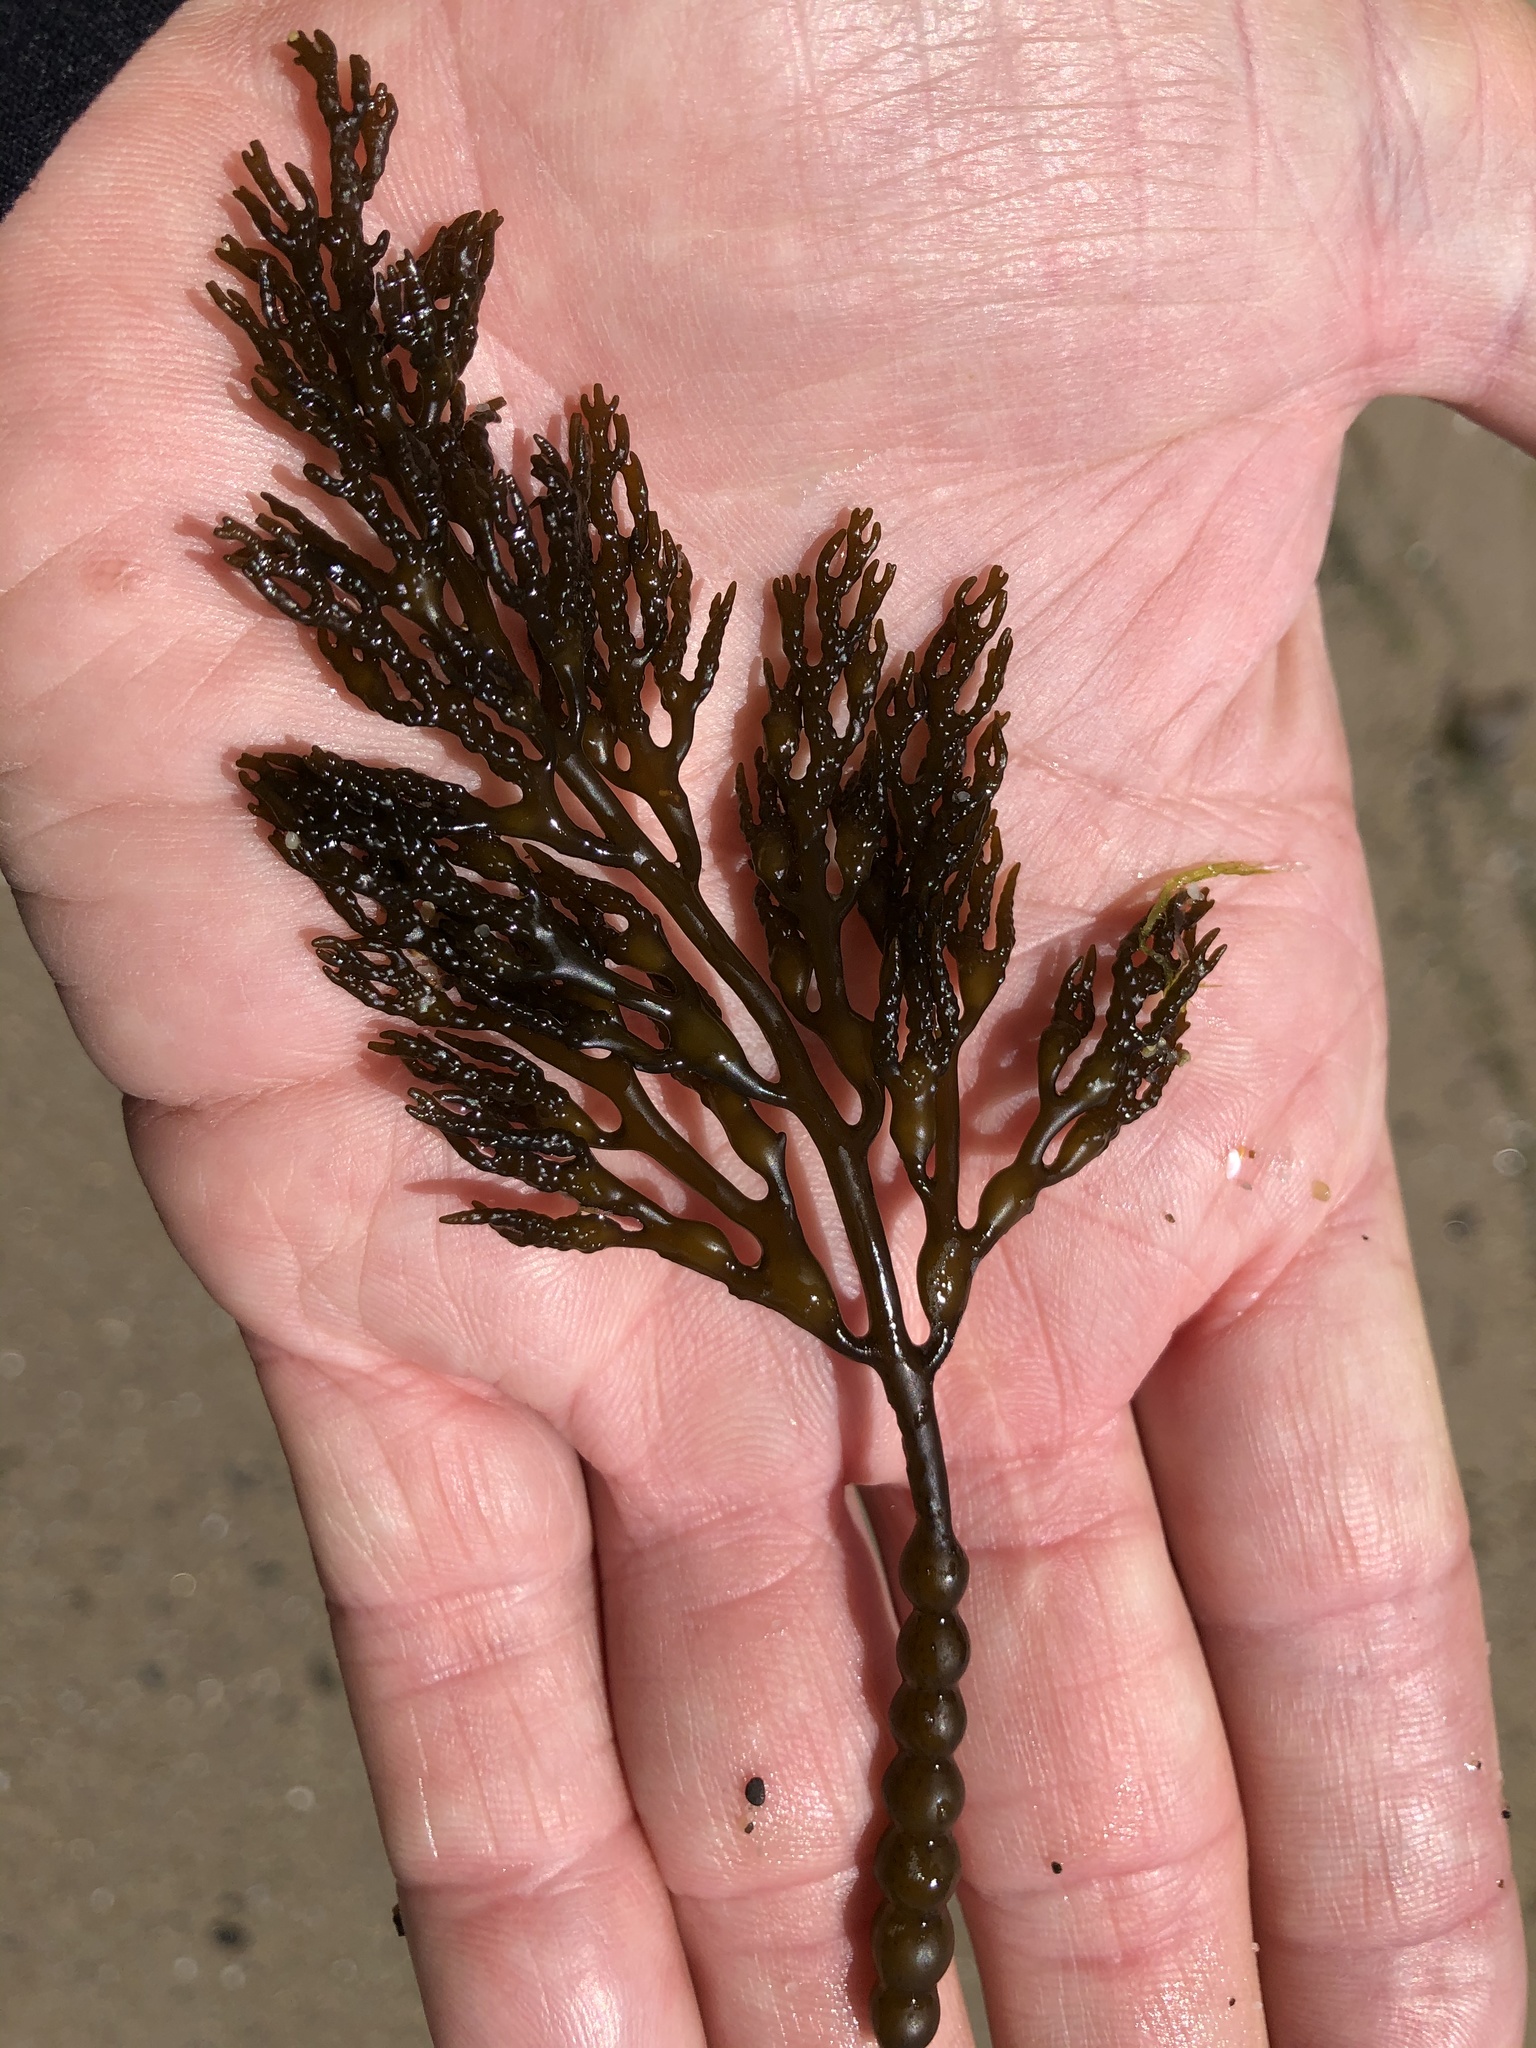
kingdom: Chromista
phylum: Ochrophyta
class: Phaeophyceae
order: Fucales
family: Sargassaceae
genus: Stephanocystis
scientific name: Stephanocystis
